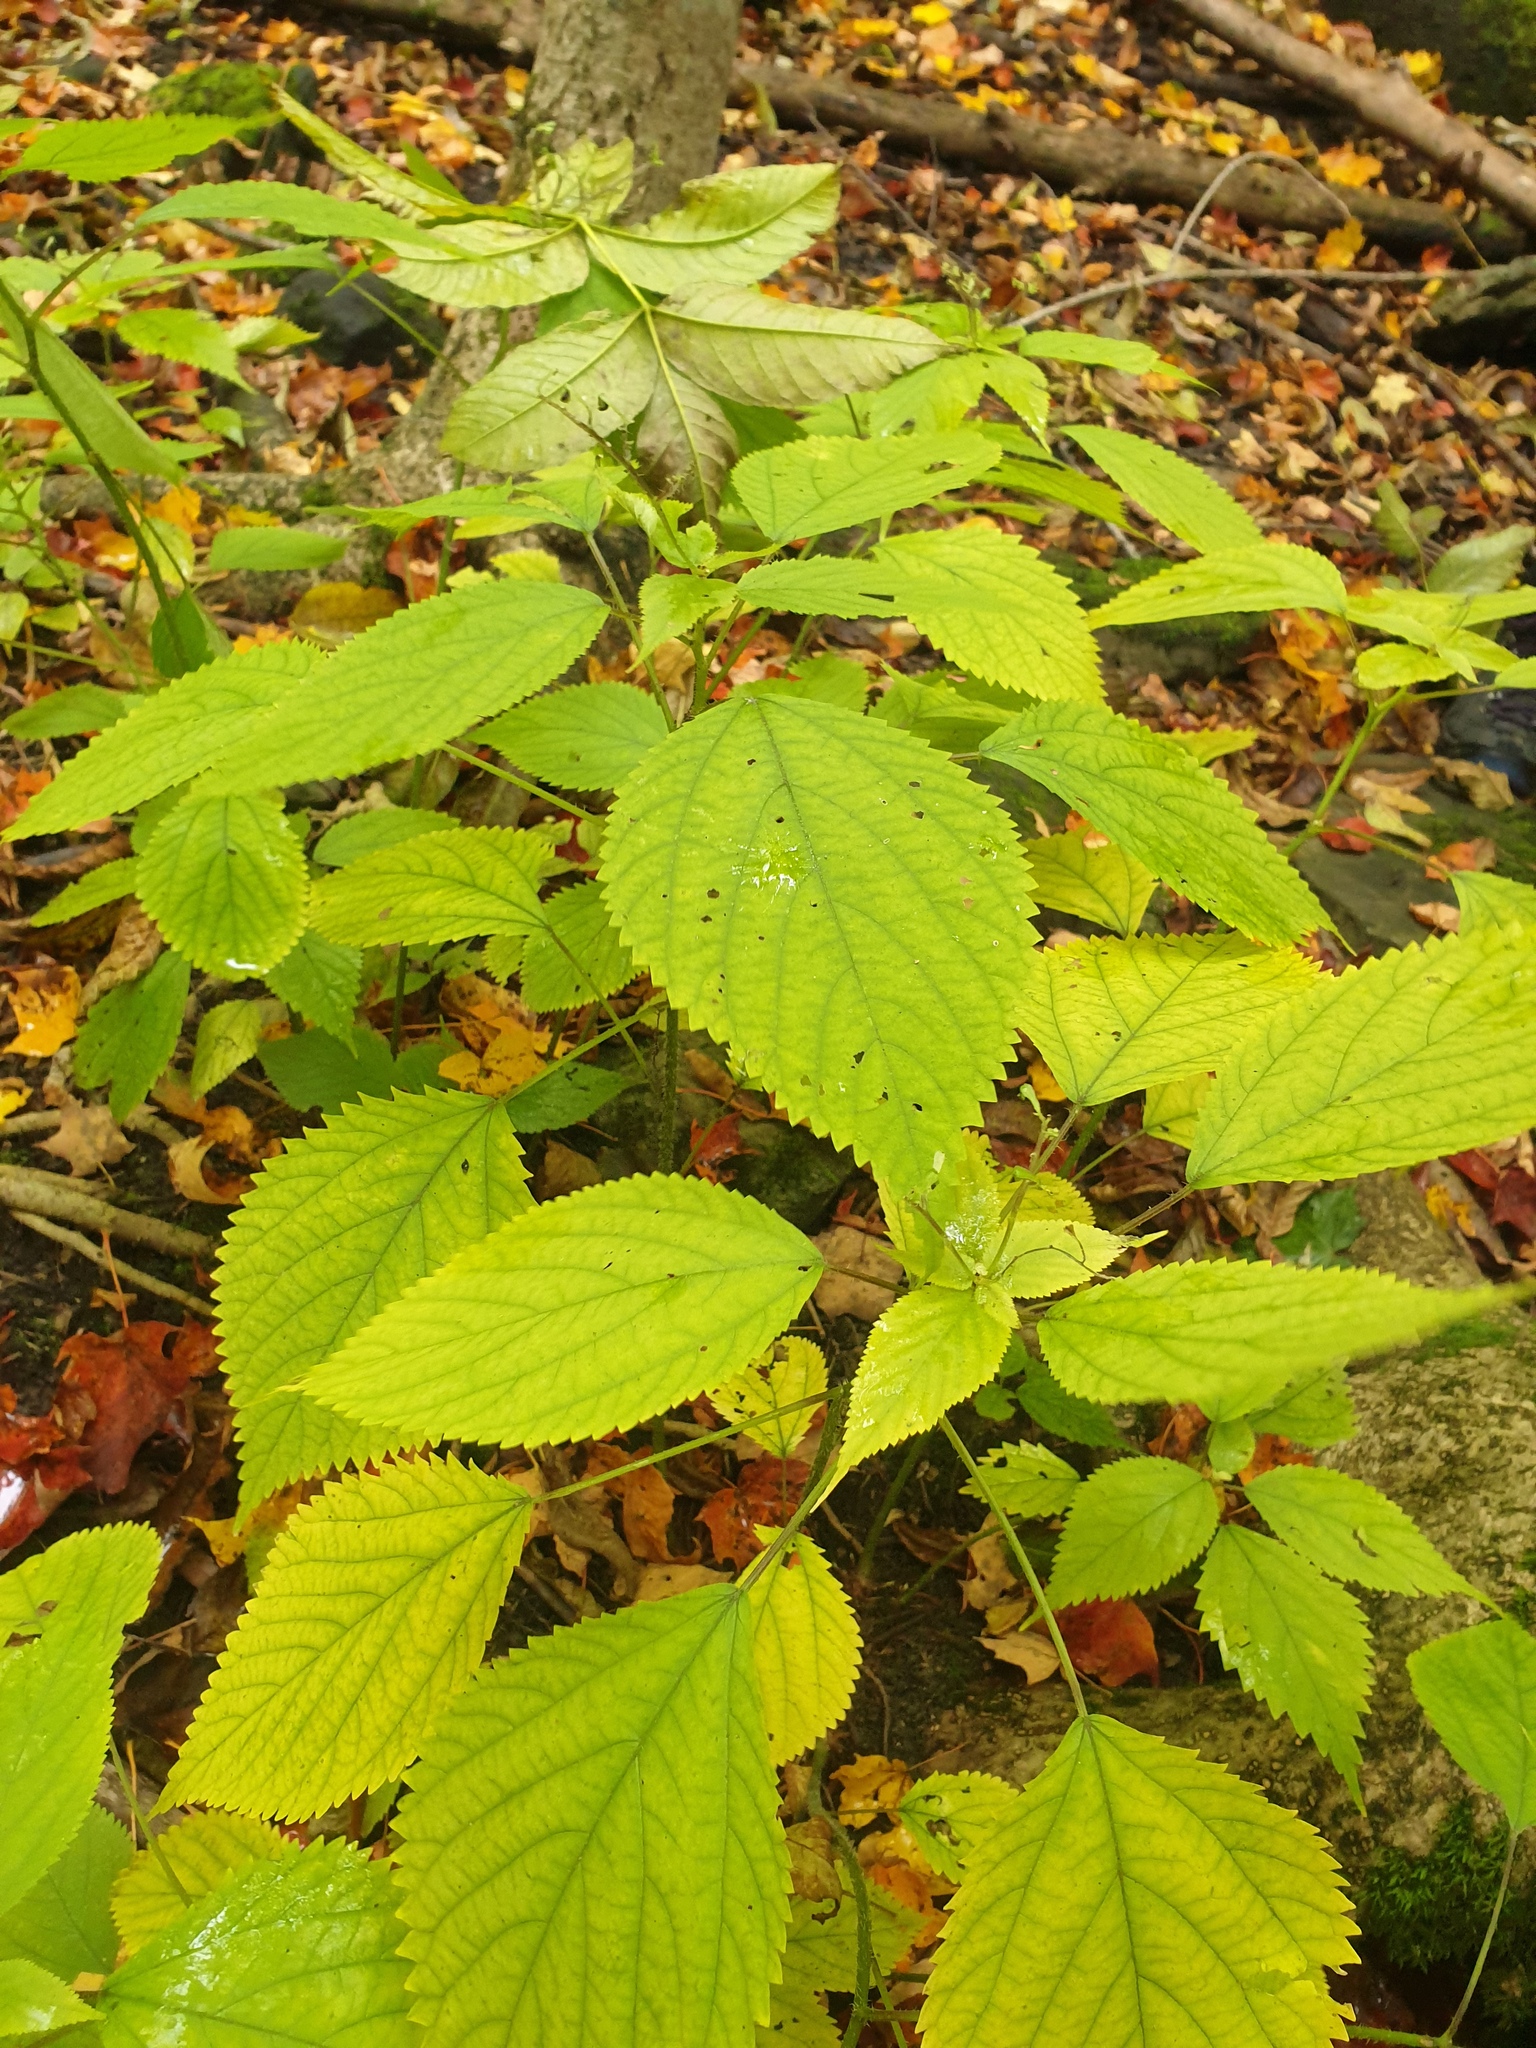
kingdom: Plantae
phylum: Tracheophyta
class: Magnoliopsida
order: Rosales
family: Urticaceae
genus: Laportea
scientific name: Laportea canadensis
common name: Canada nettle
